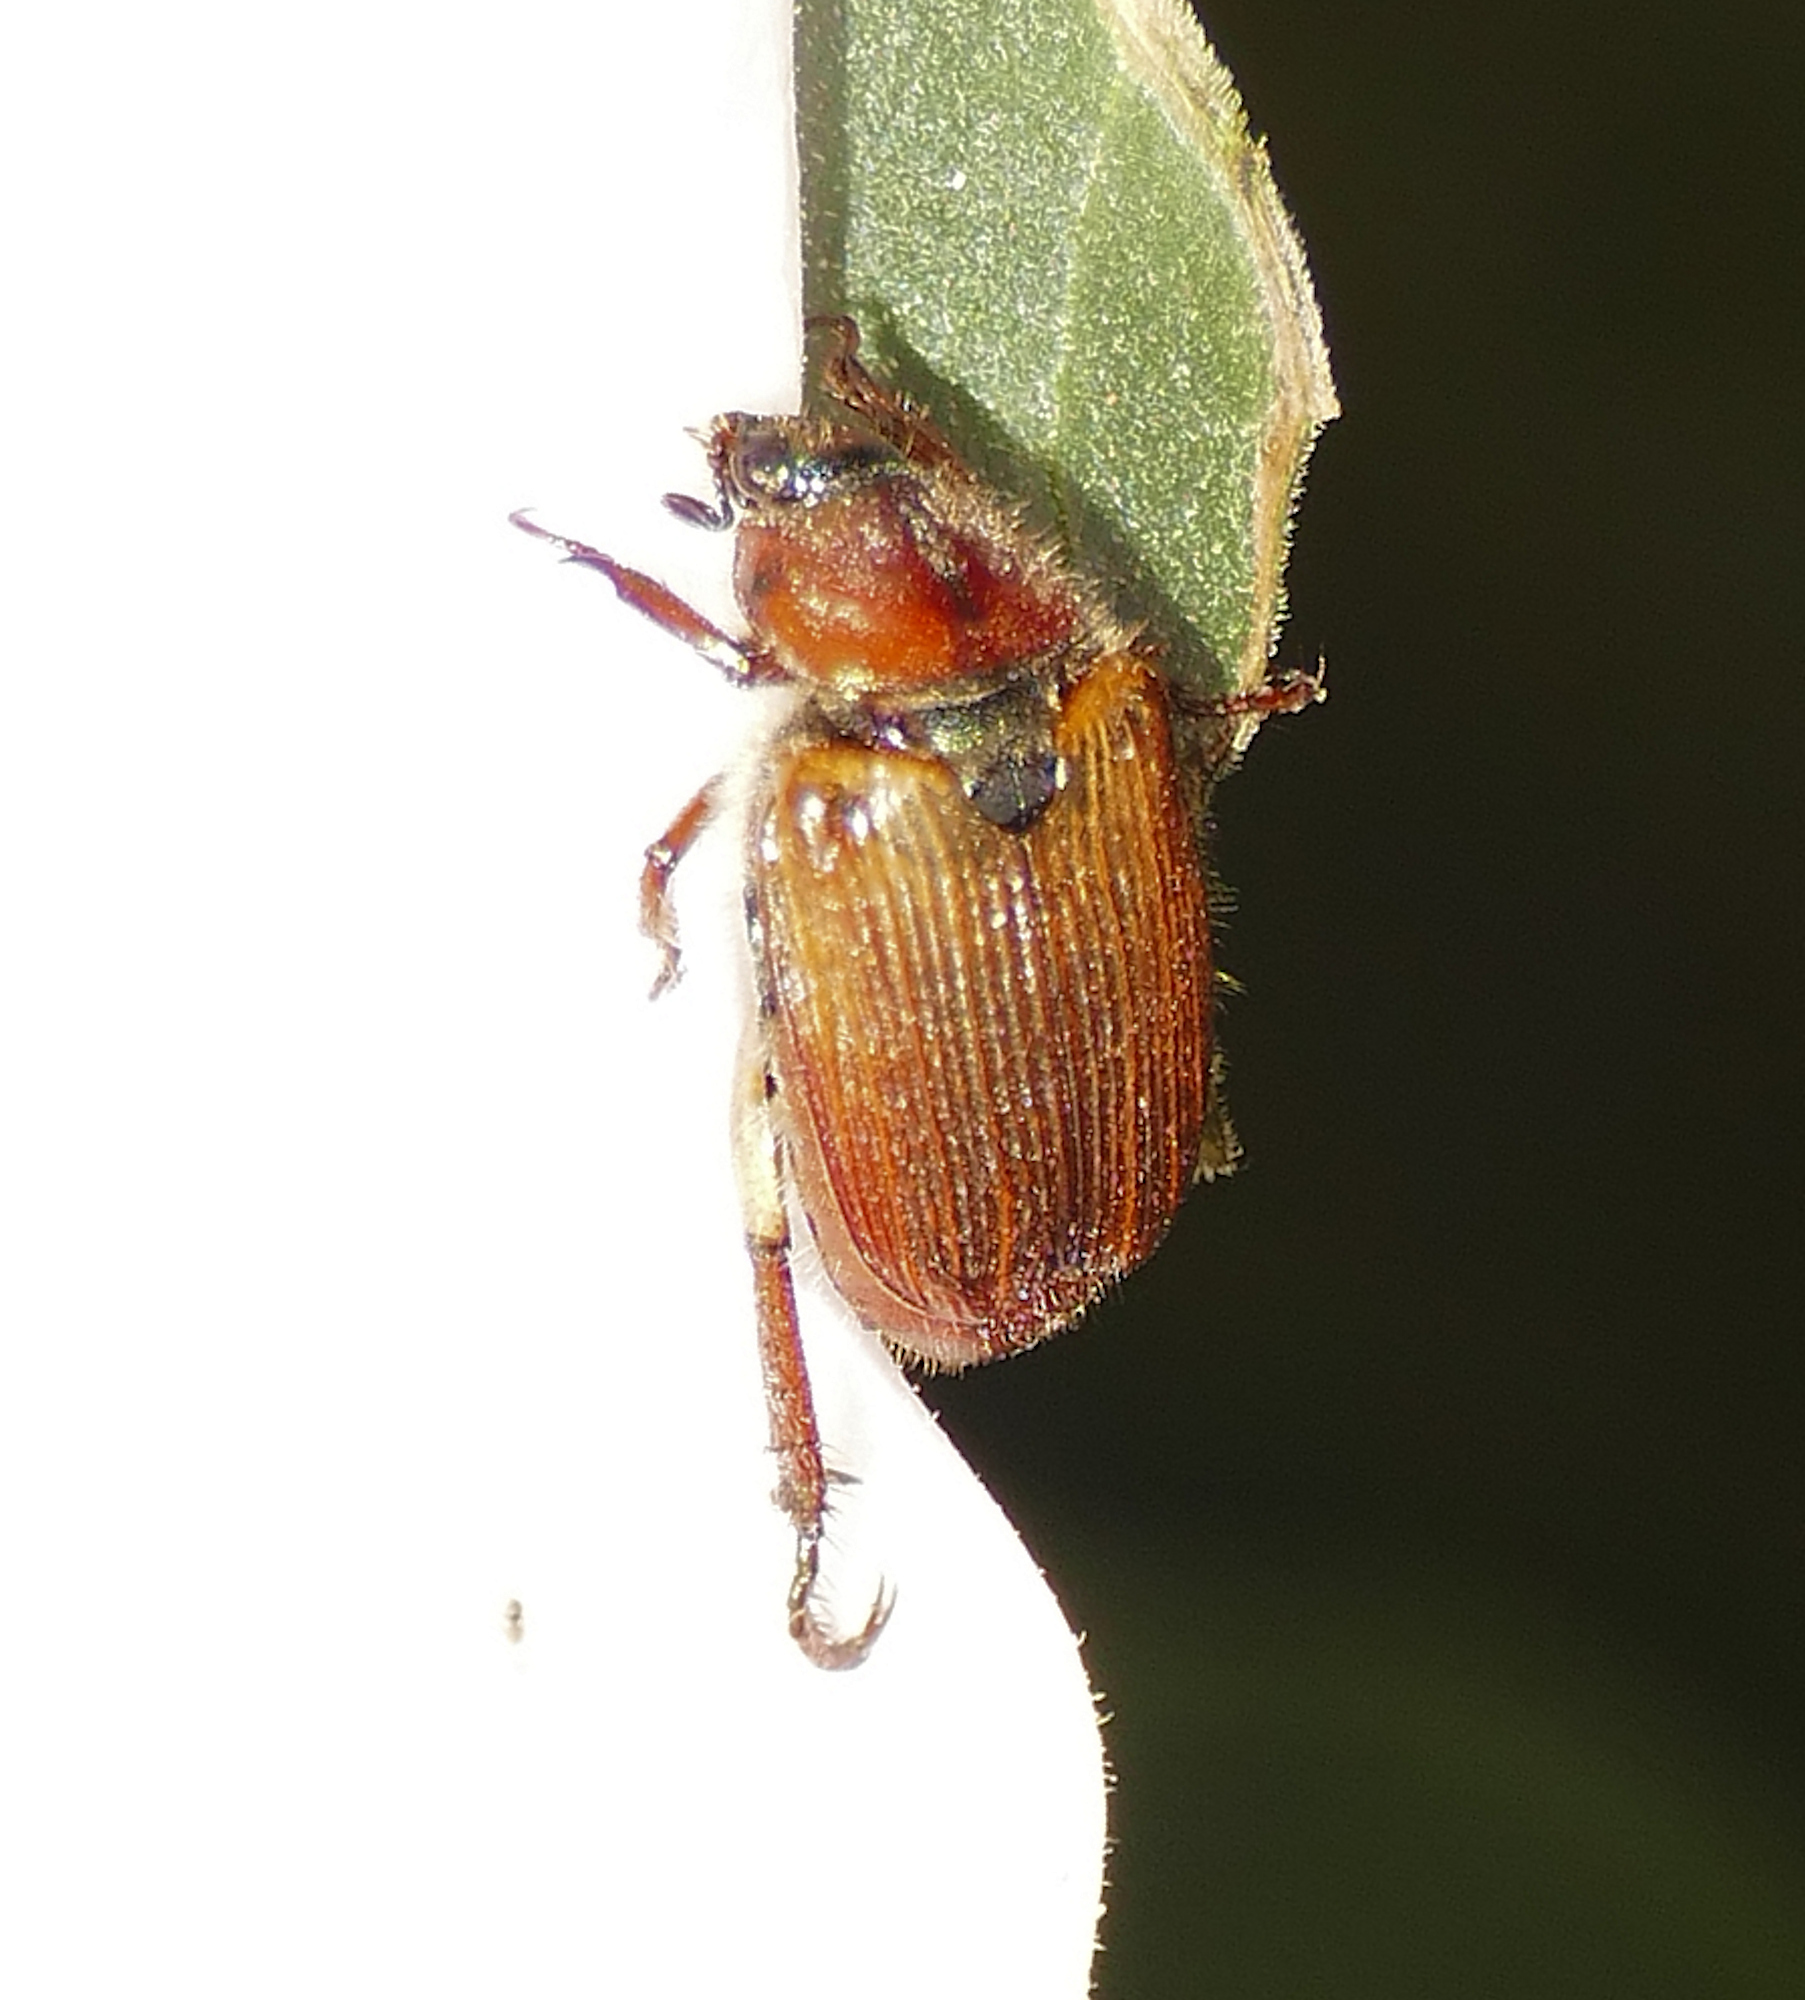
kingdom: Animalia
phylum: Arthropoda
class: Insecta
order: Coleoptera
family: Scarabaeidae
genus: Strigoderma
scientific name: Strigoderma pimalis
